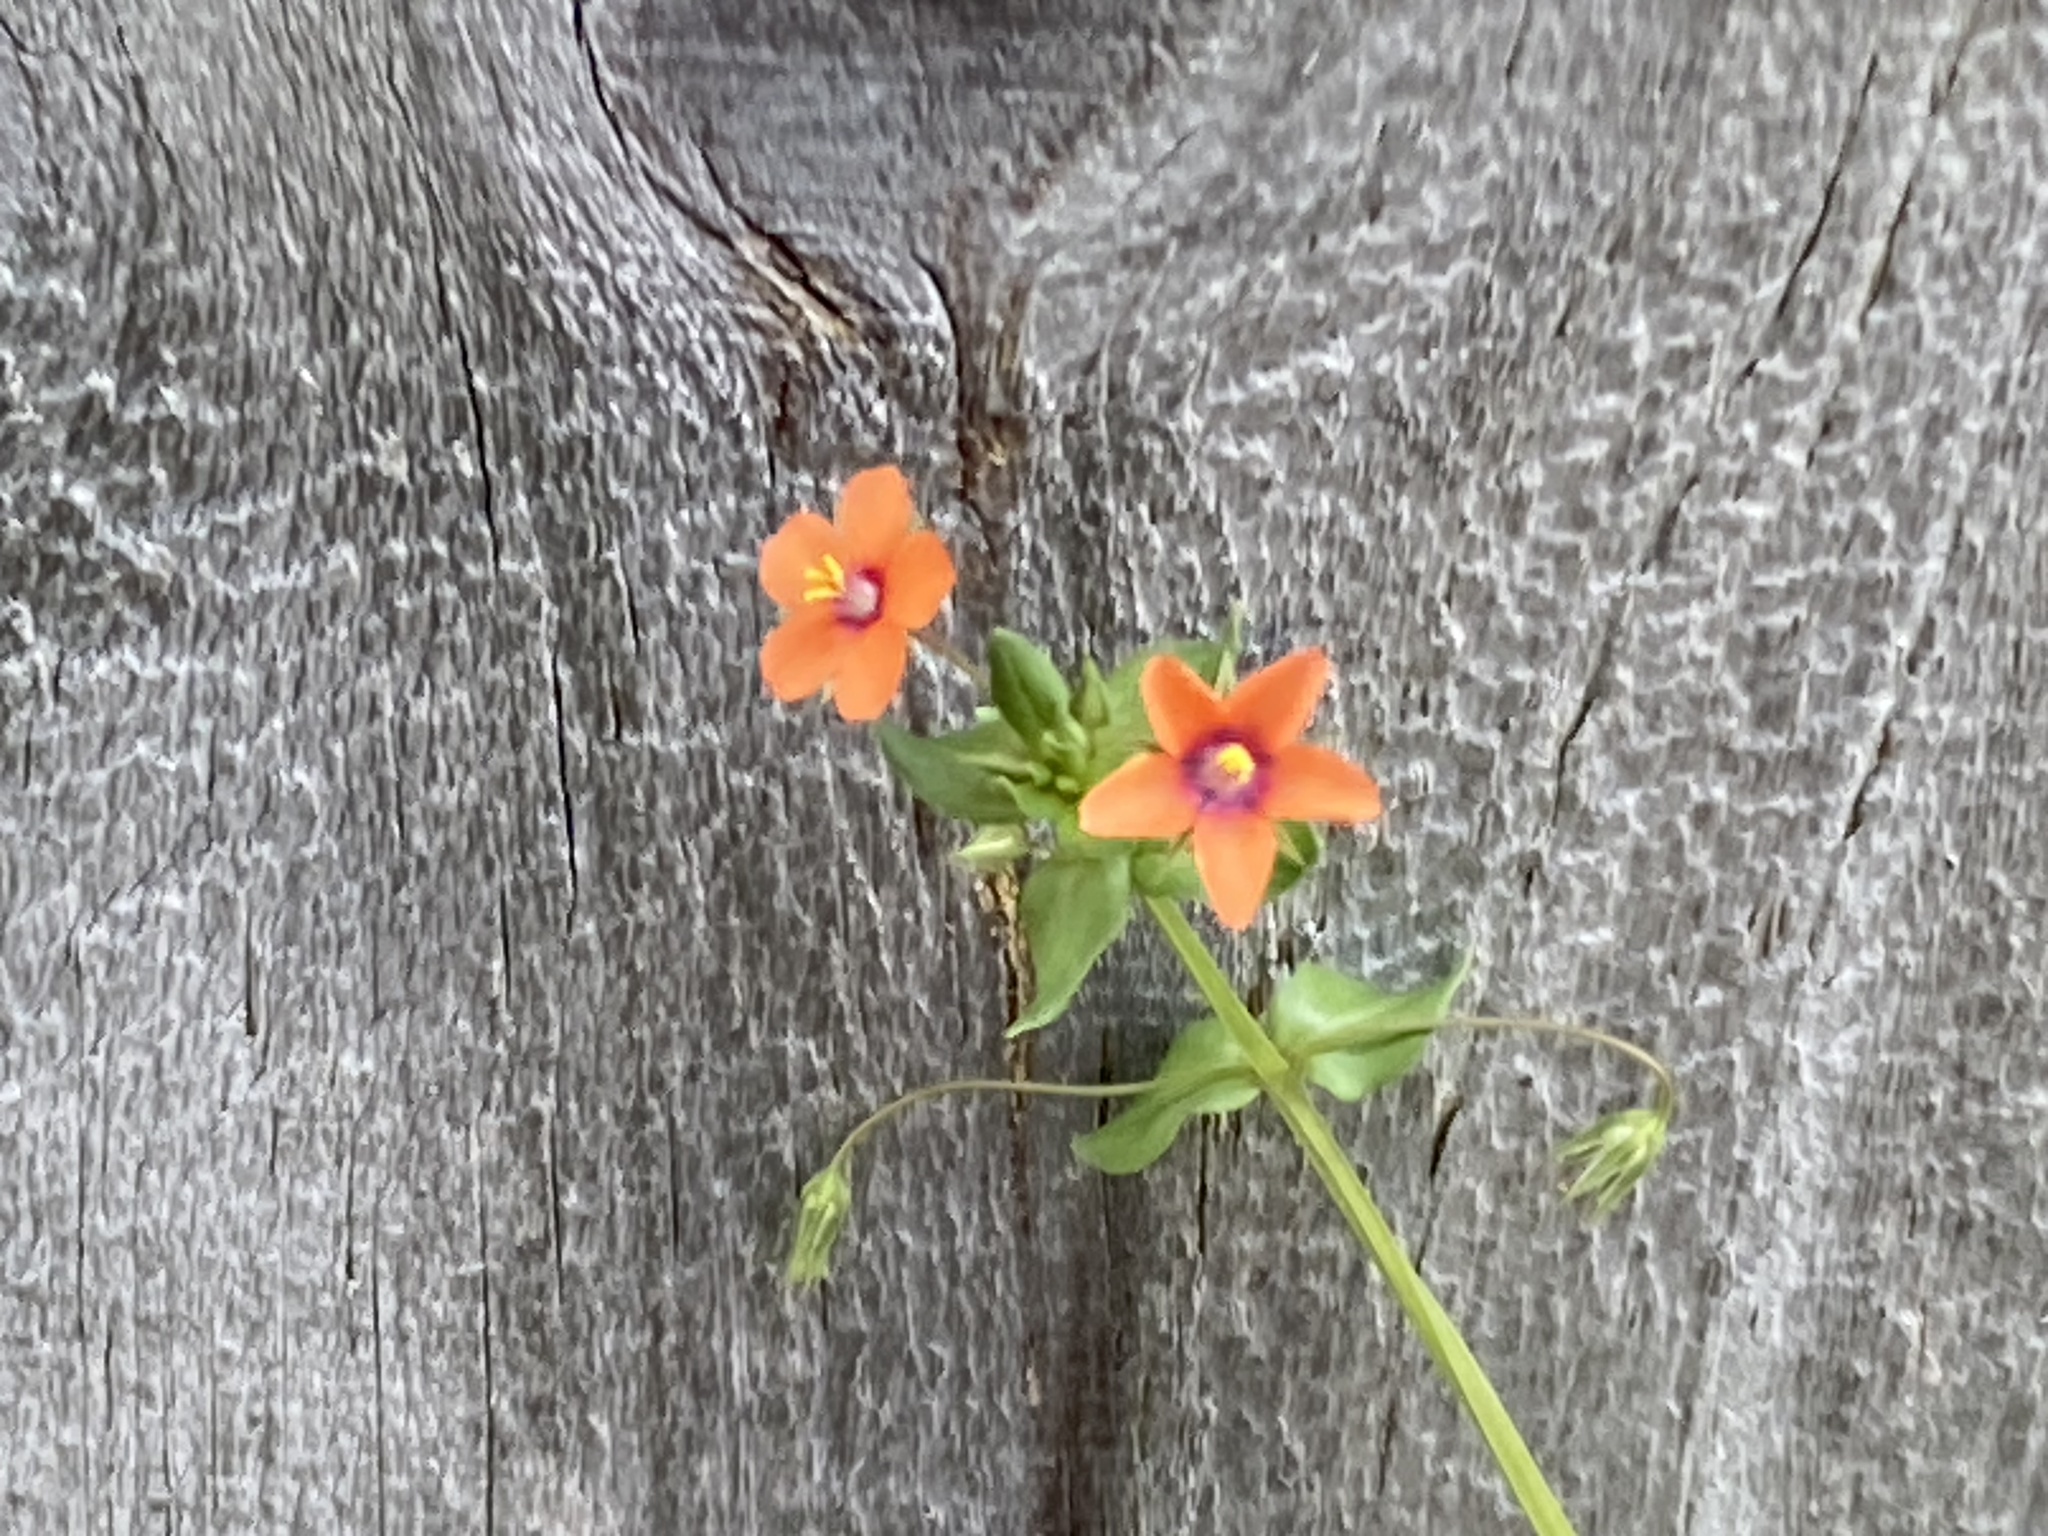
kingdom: Plantae
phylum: Tracheophyta
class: Magnoliopsida
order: Ericales
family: Primulaceae
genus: Lysimachia
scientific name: Lysimachia arvensis
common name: Scarlet pimpernel
